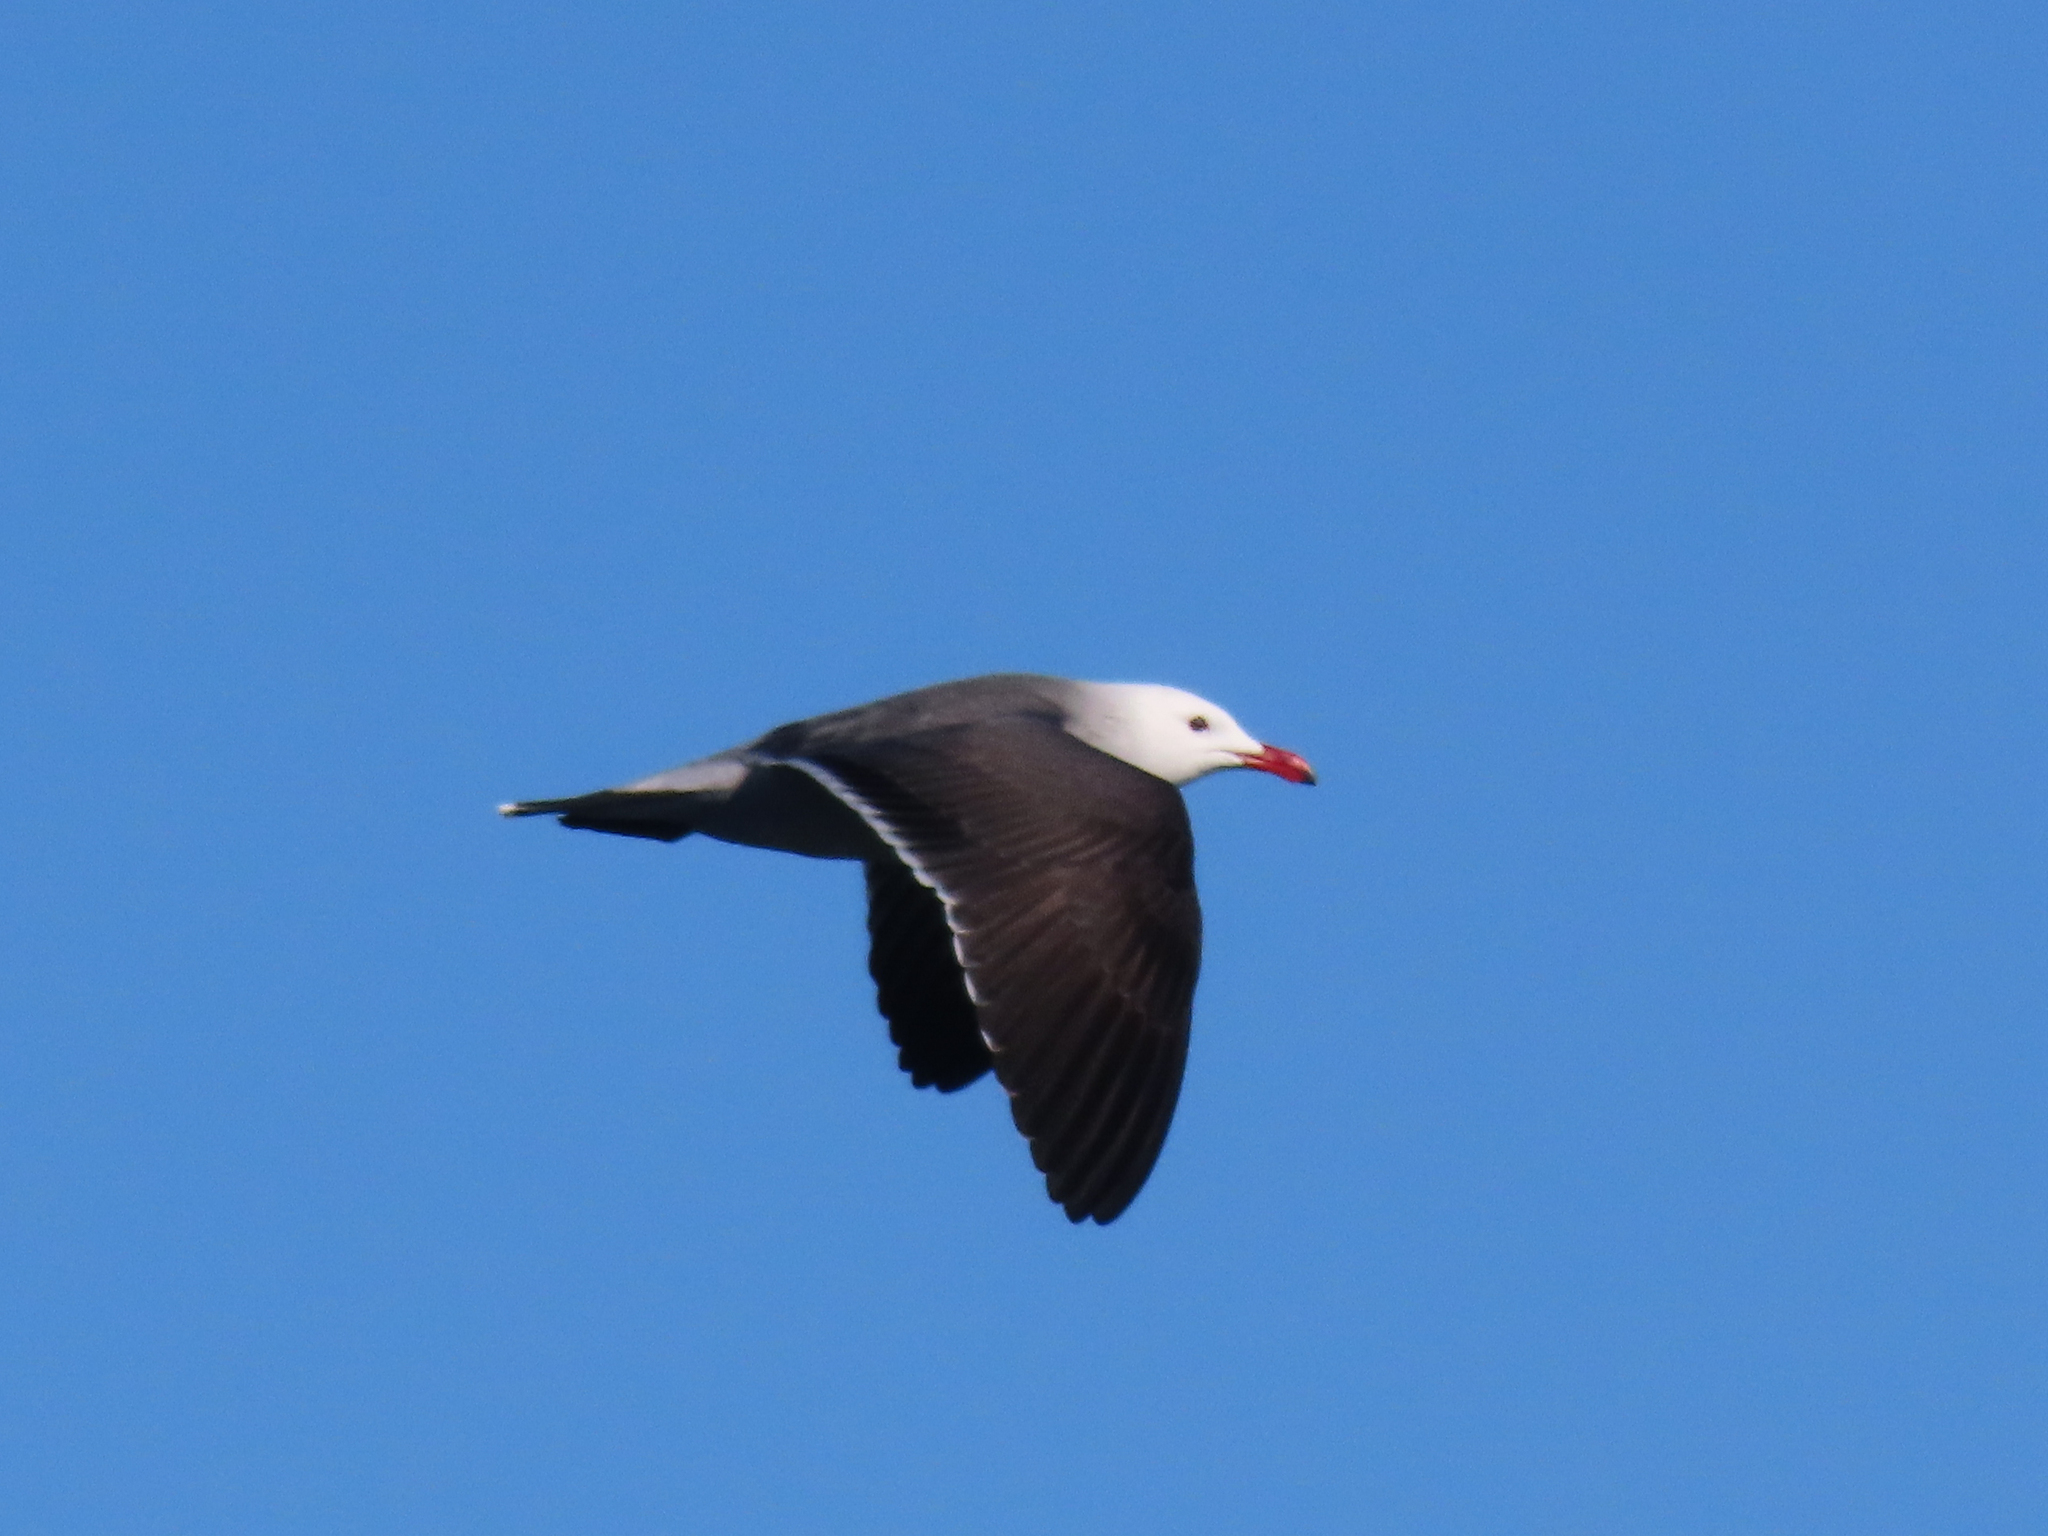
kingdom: Animalia
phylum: Chordata
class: Aves
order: Charadriiformes
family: Laridae
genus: Larus
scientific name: Larus heermanni
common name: Heermann's gull
